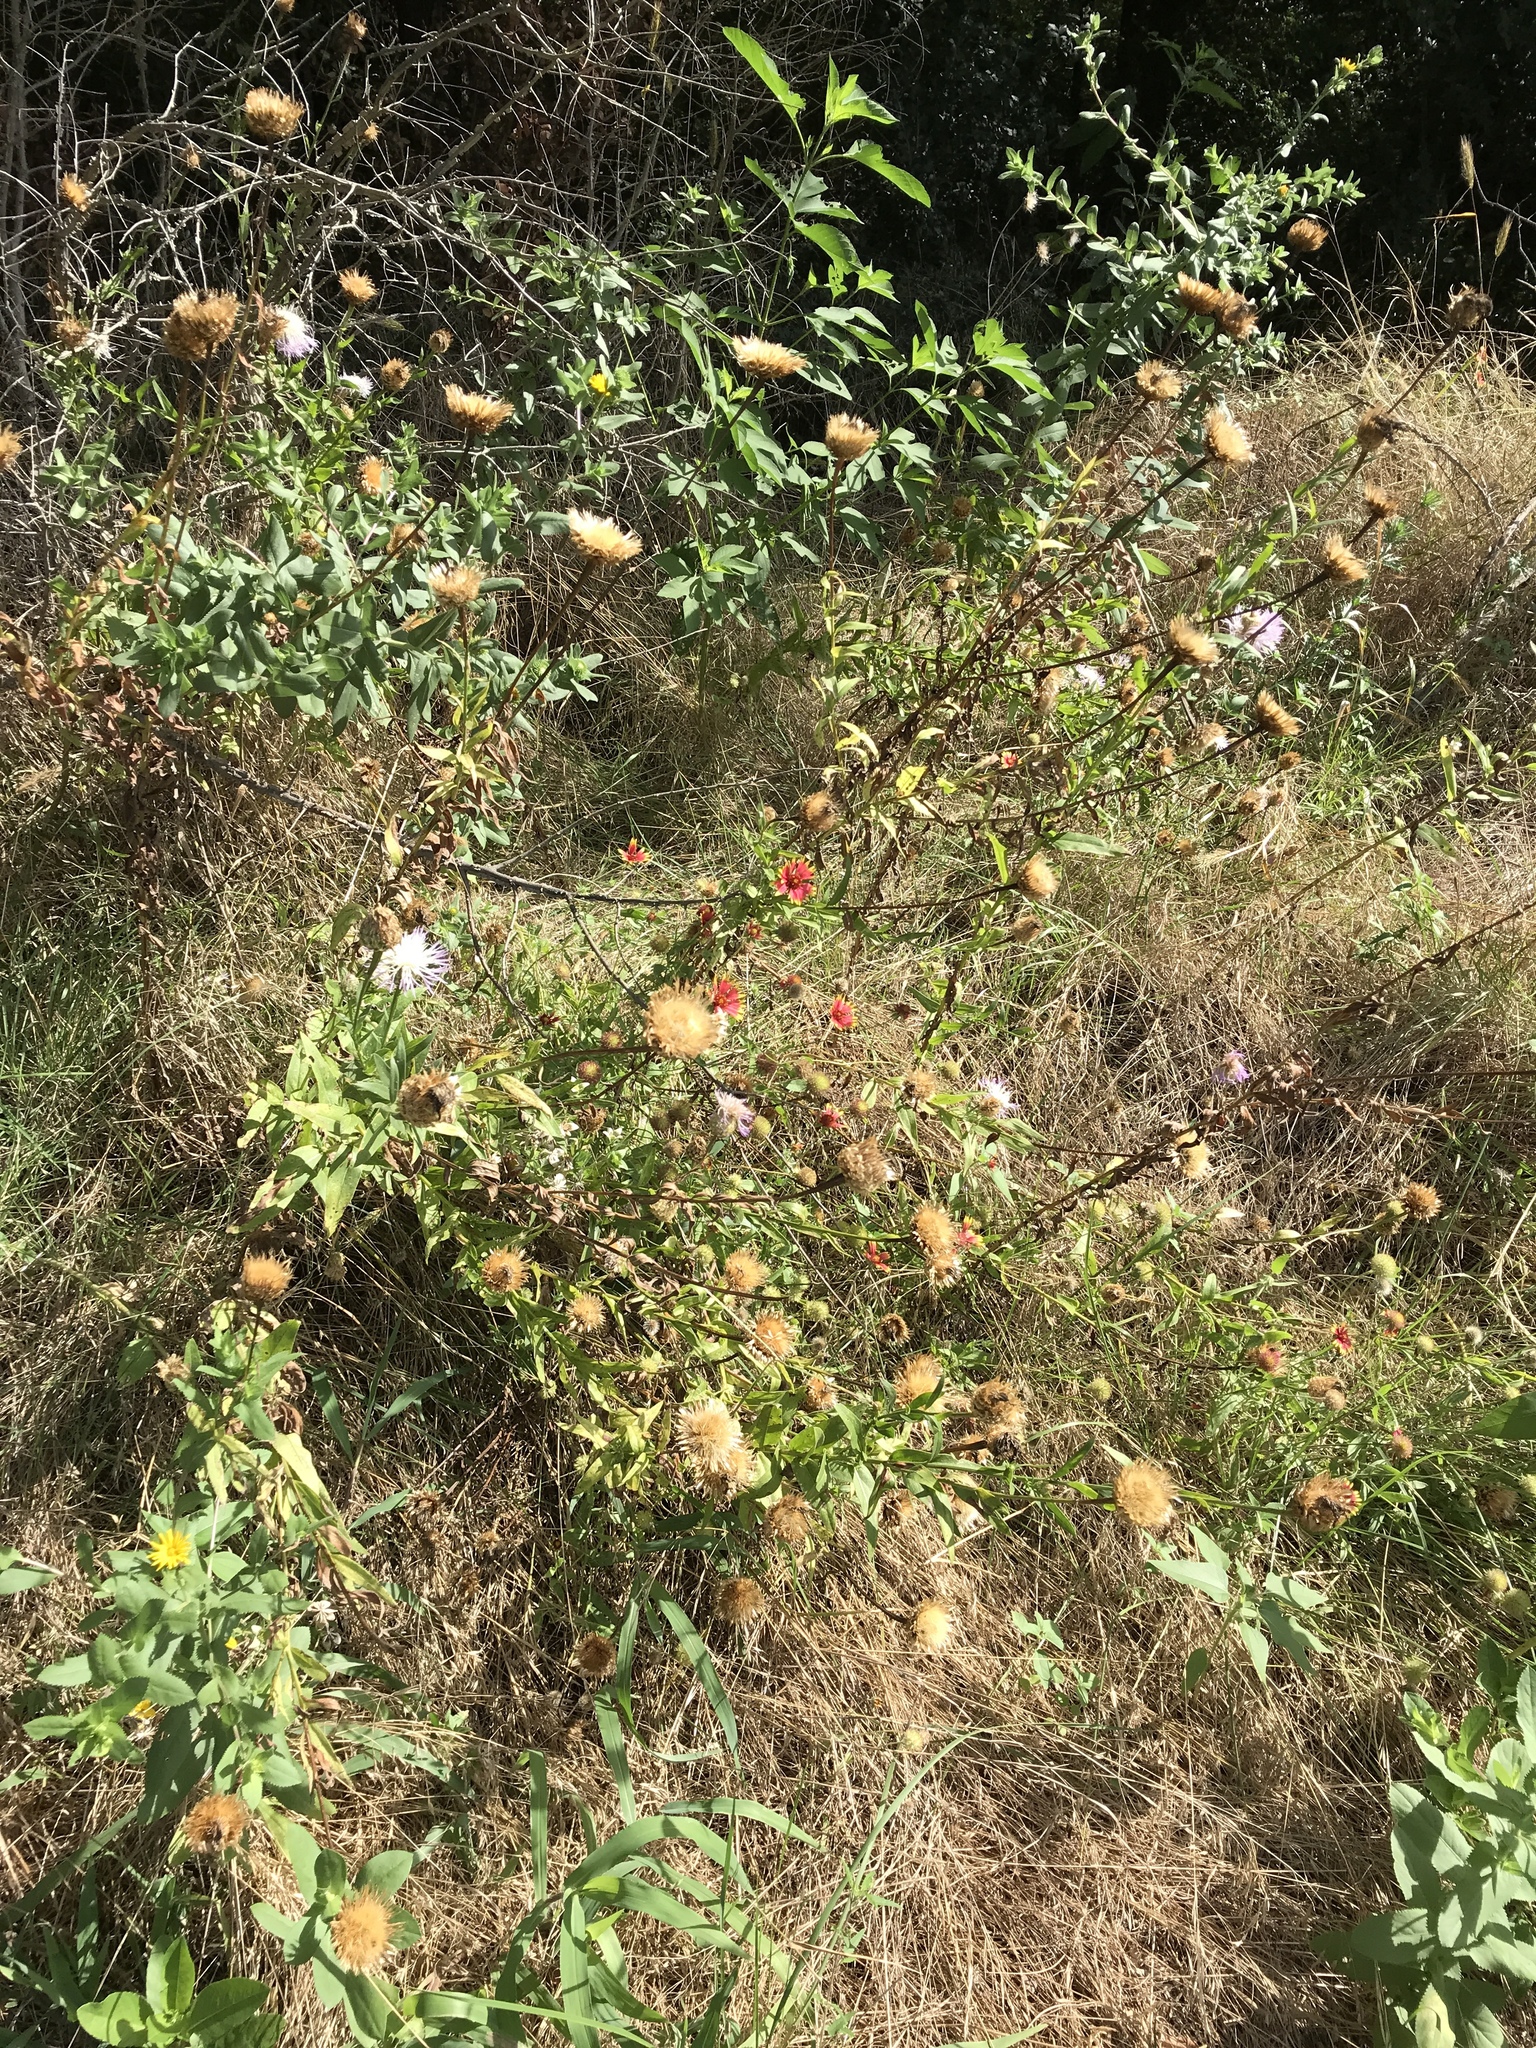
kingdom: Plantae
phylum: Tracheophyta
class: Magnoliopsida
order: Asterales
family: Asteraceae
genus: Plectocephalus
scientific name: Plectocephalus americanus
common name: American basket-flower
